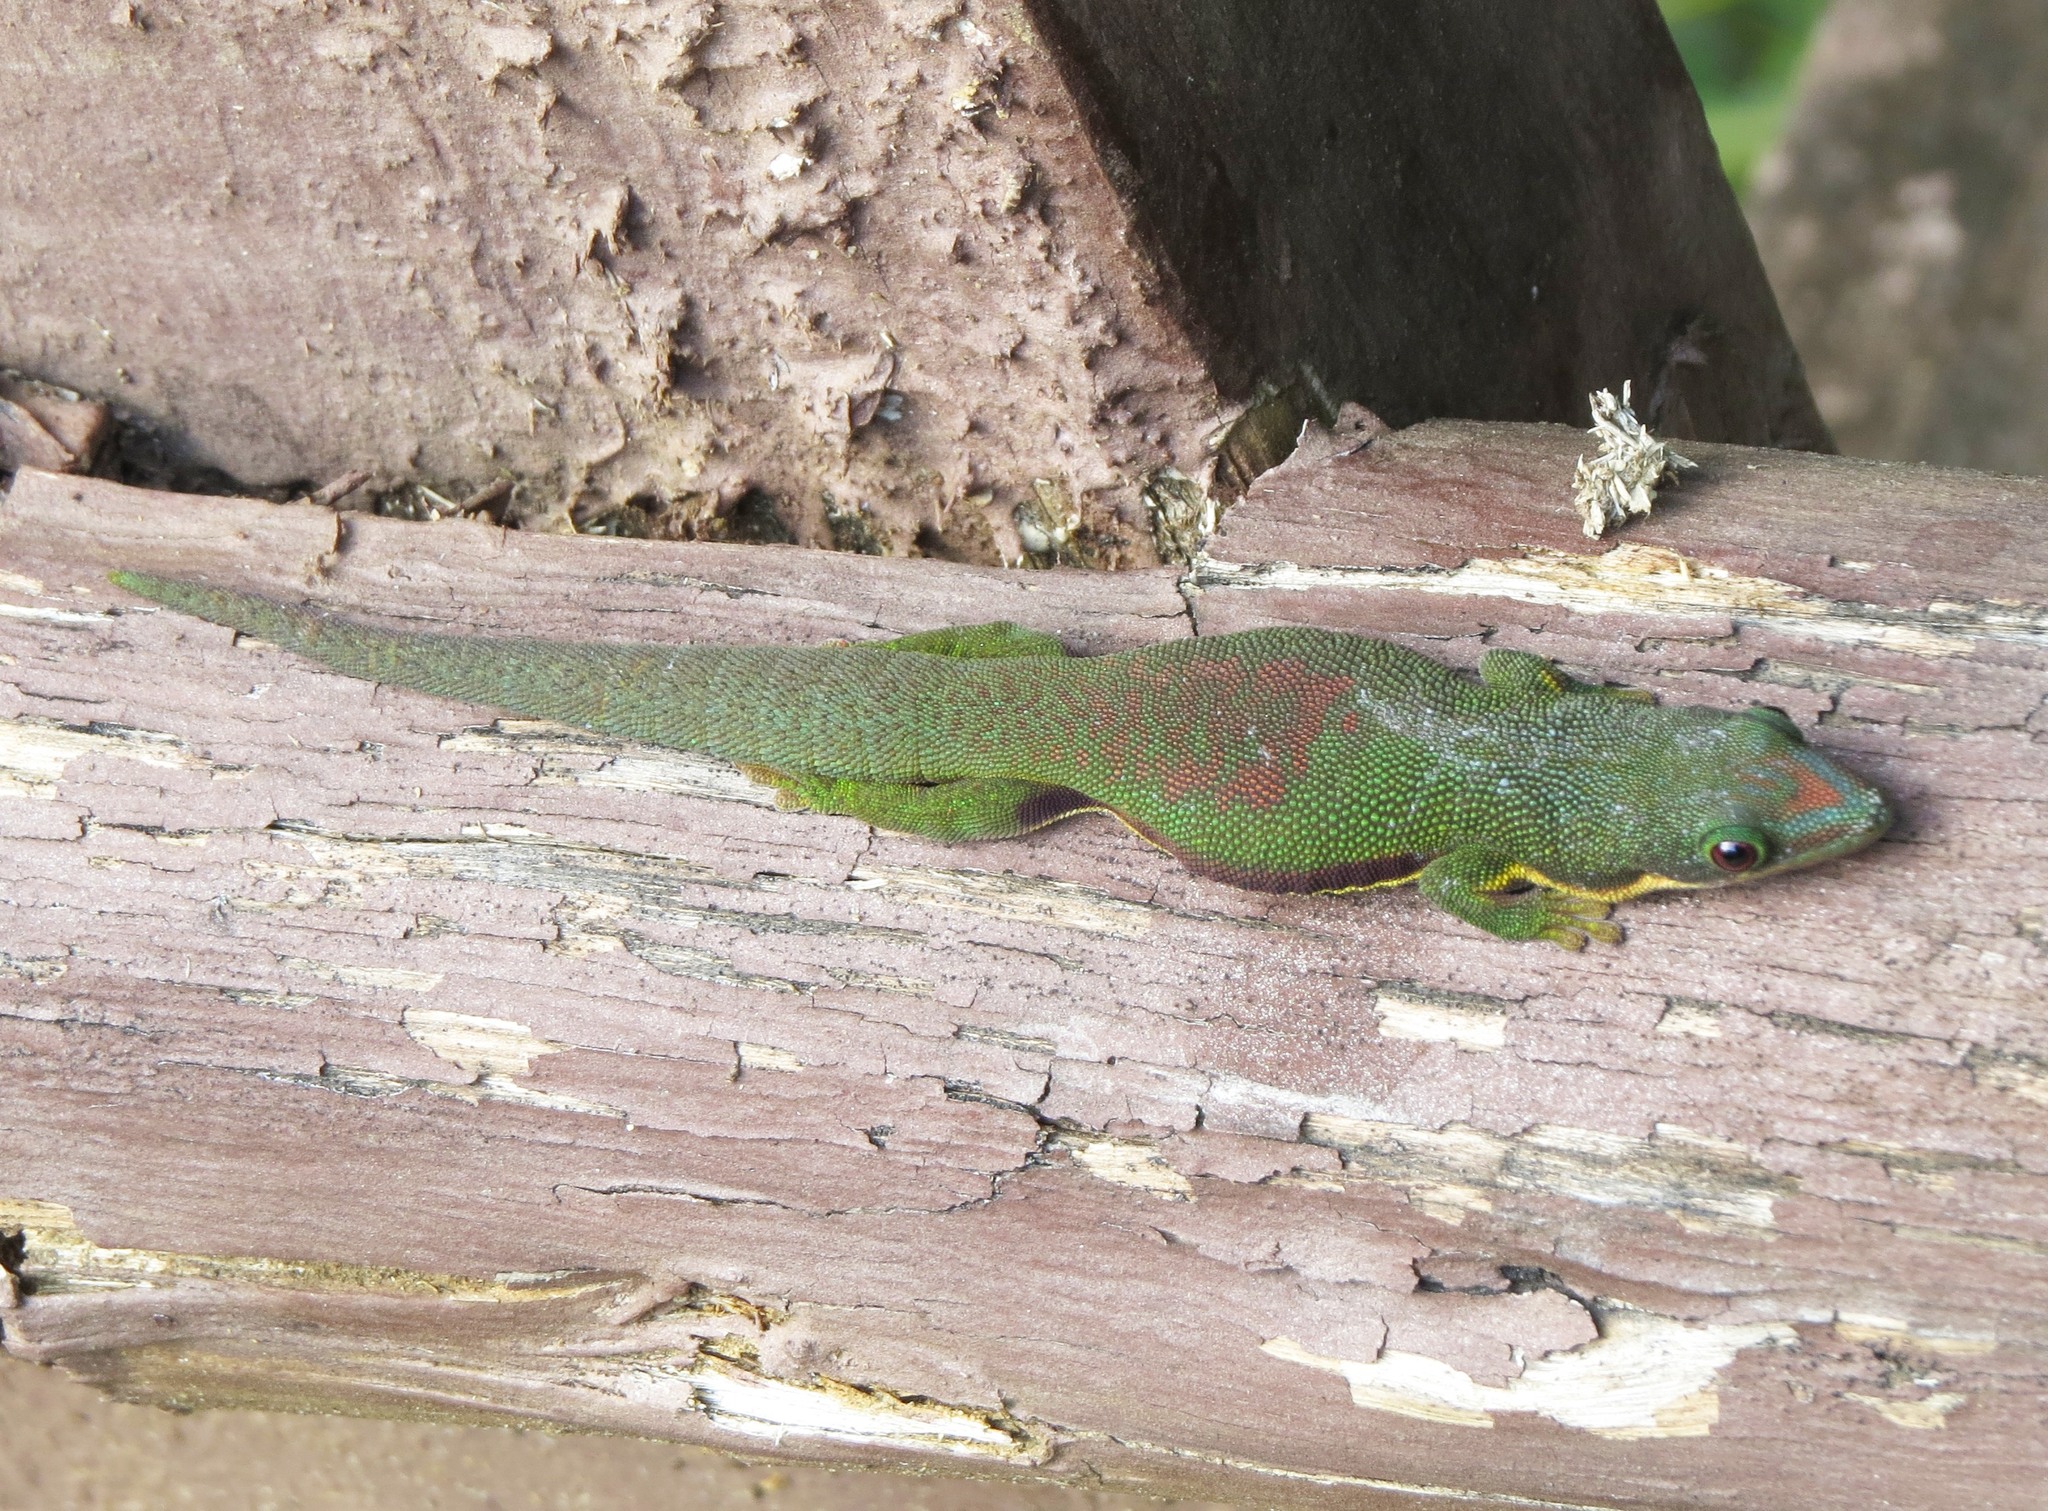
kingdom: Animalia
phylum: Chordata
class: Squamata
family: Gekkonidae
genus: Phelsuma
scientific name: Phelsuma lineata
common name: Lined day gecko
